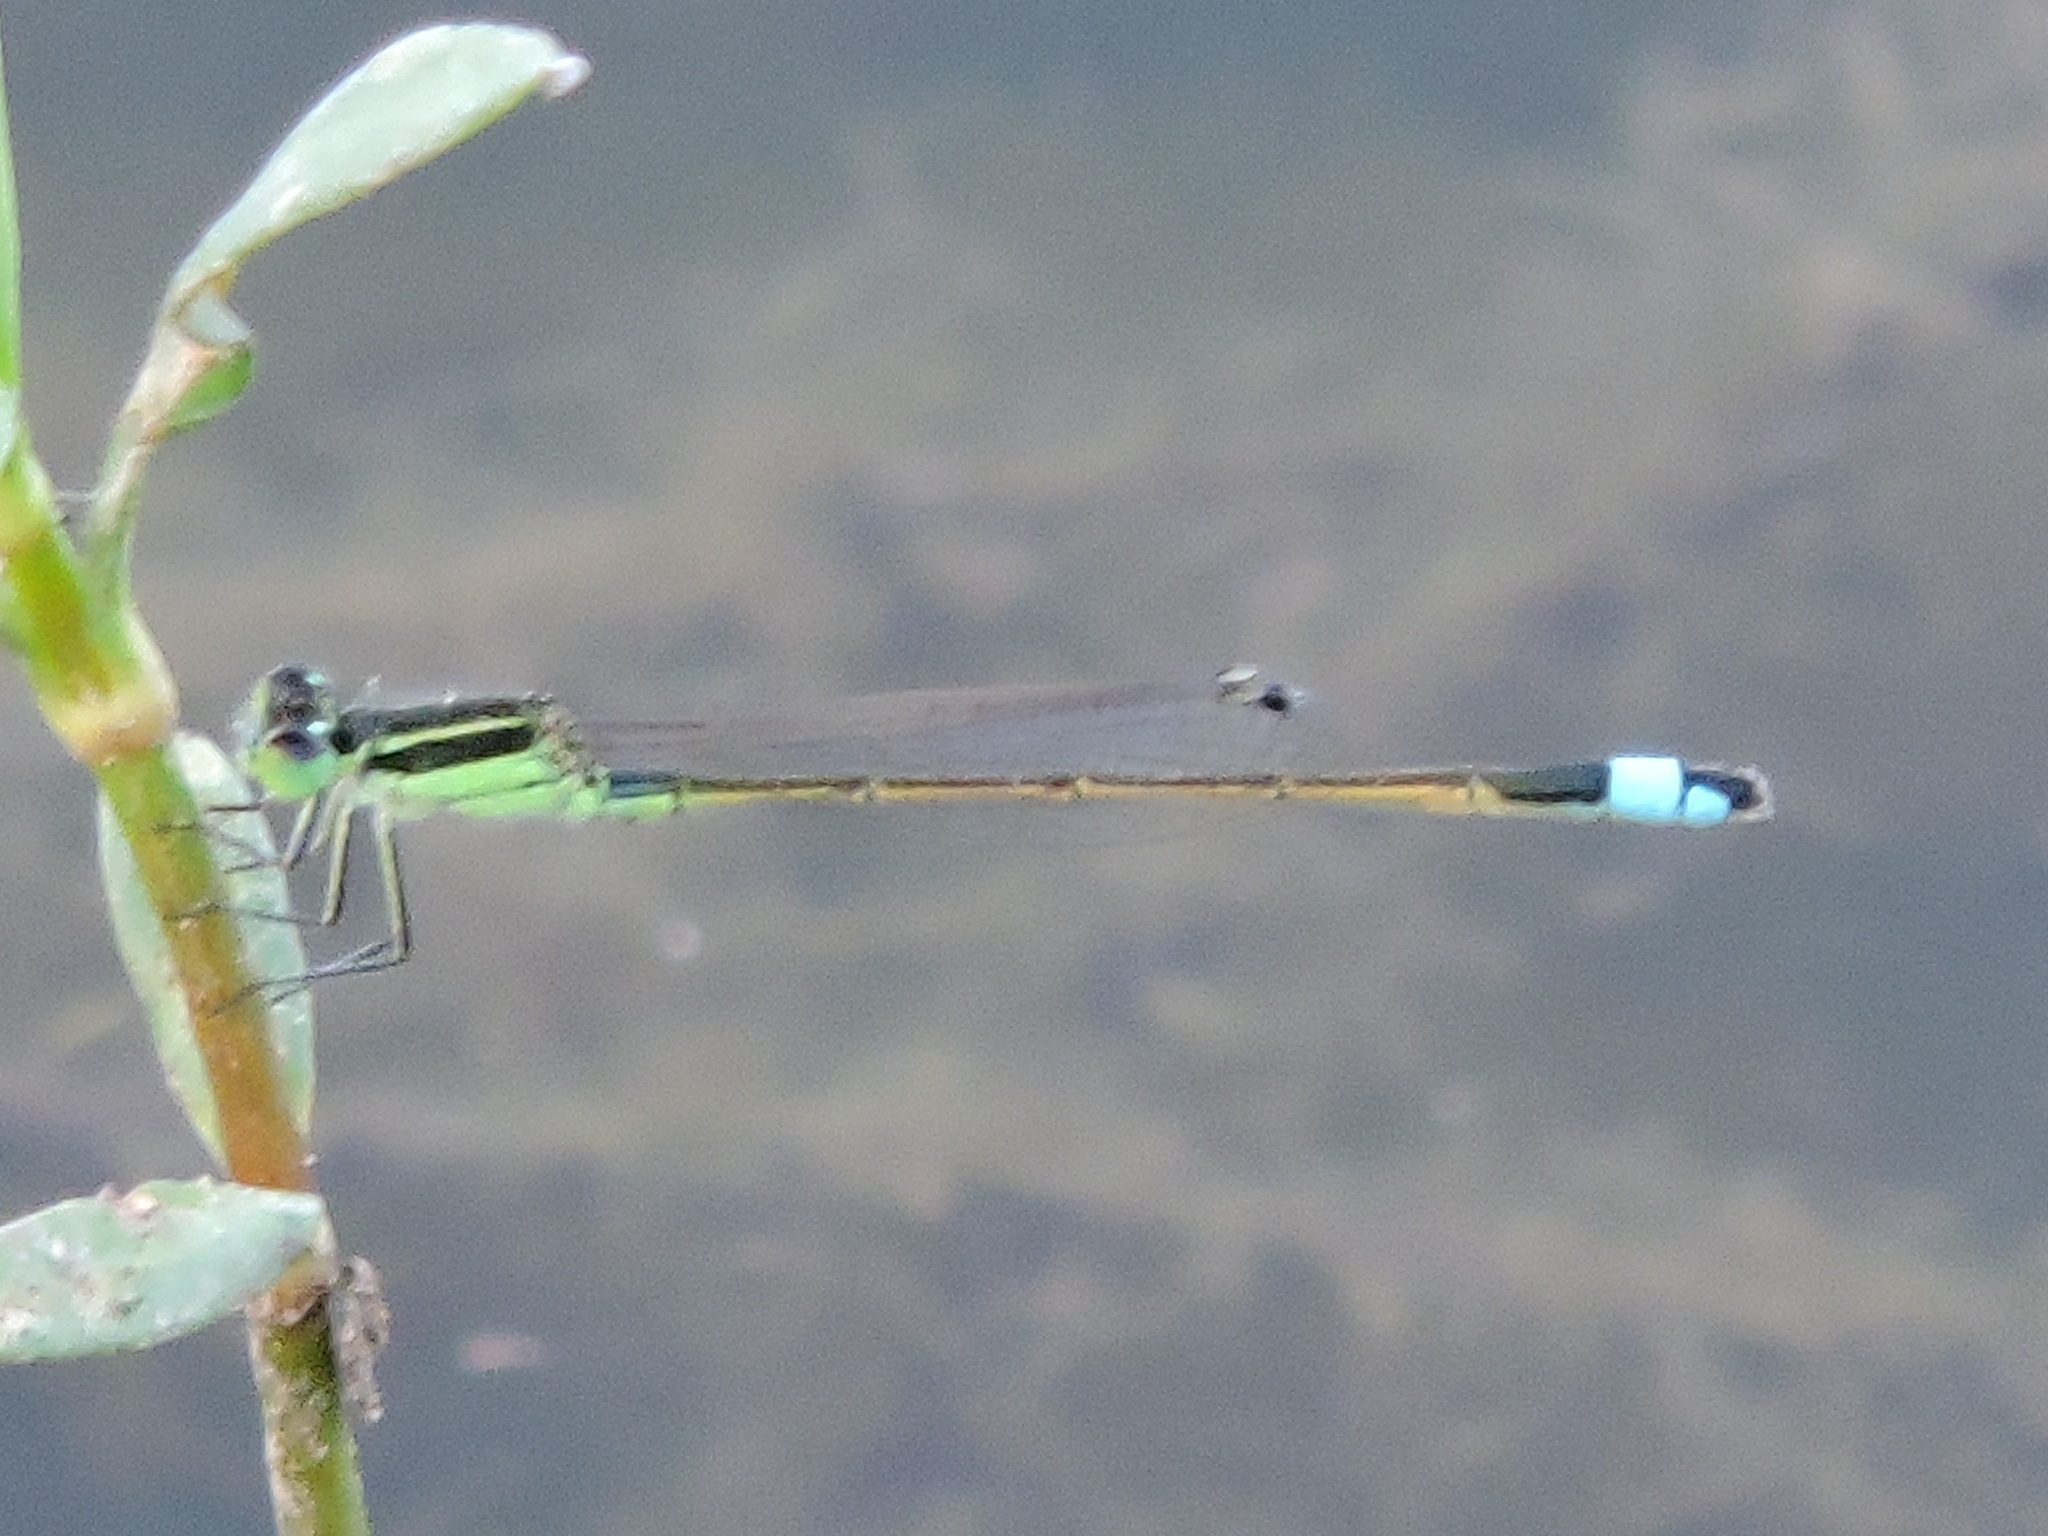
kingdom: Animalia
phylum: Arthropoda
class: Insecta
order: Odonata
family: Coenagrionidae
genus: Ischnura
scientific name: Ischnura ramburii
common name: Rambur's forktail
